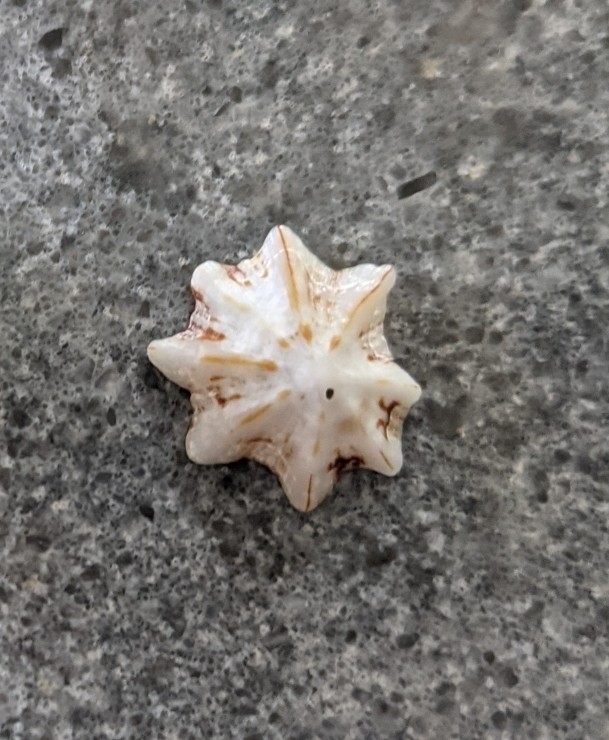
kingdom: Animalia
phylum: Mollusca
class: Gastropoda
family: Patellidae
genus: Scutellastra
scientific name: Scutellastra chapmani
